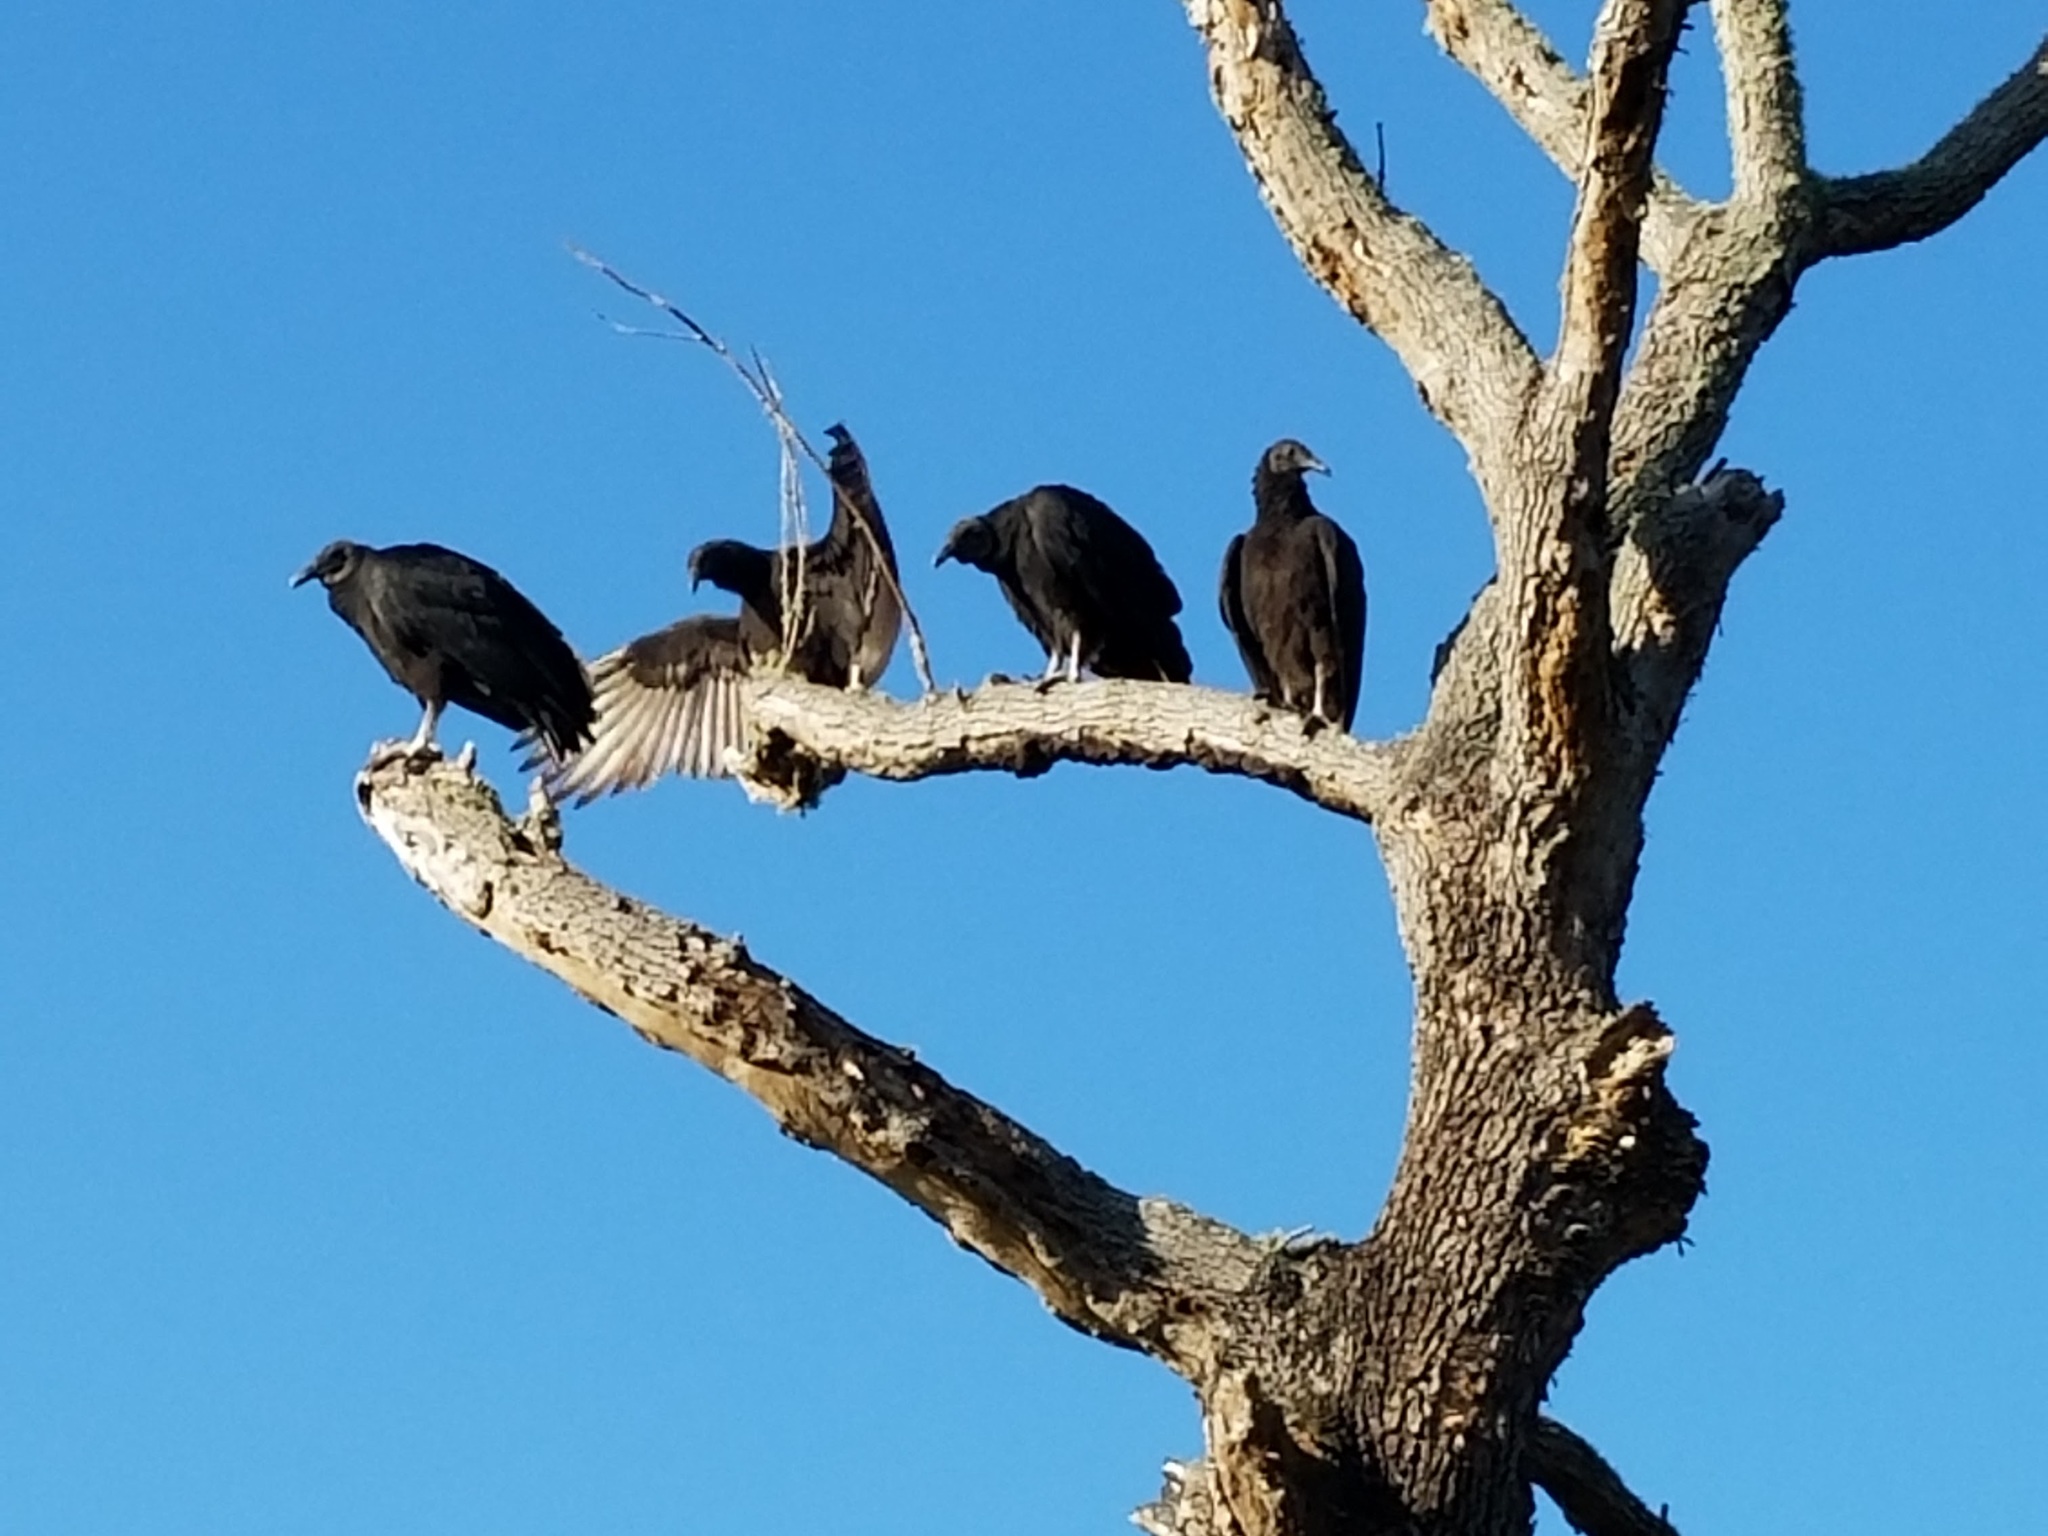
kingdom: Animalia
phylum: Chordata
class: Aves
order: Accipitriformes
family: Cathartidae
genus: Coragyps
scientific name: Coragyps atratus
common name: Black vulture
